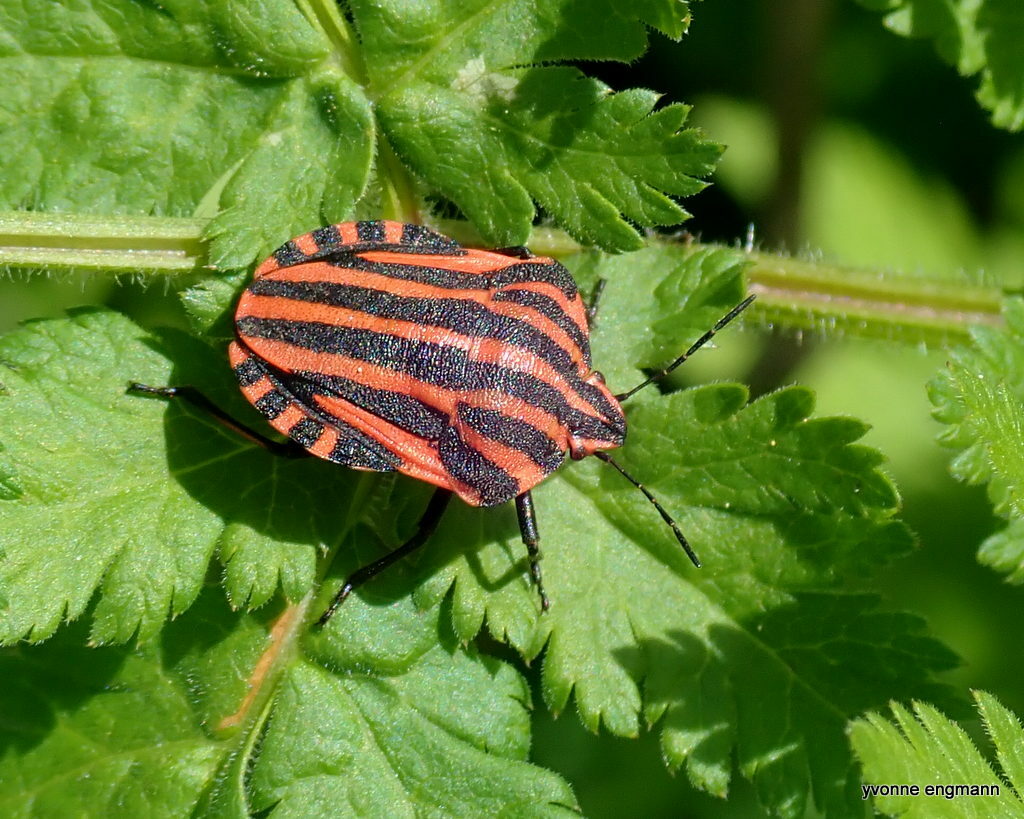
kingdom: Animalia
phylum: Arthropoda
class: Insecta
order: Hemiptera
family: Pentatomidae
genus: Graphosoma
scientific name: Graphosoma italicum
